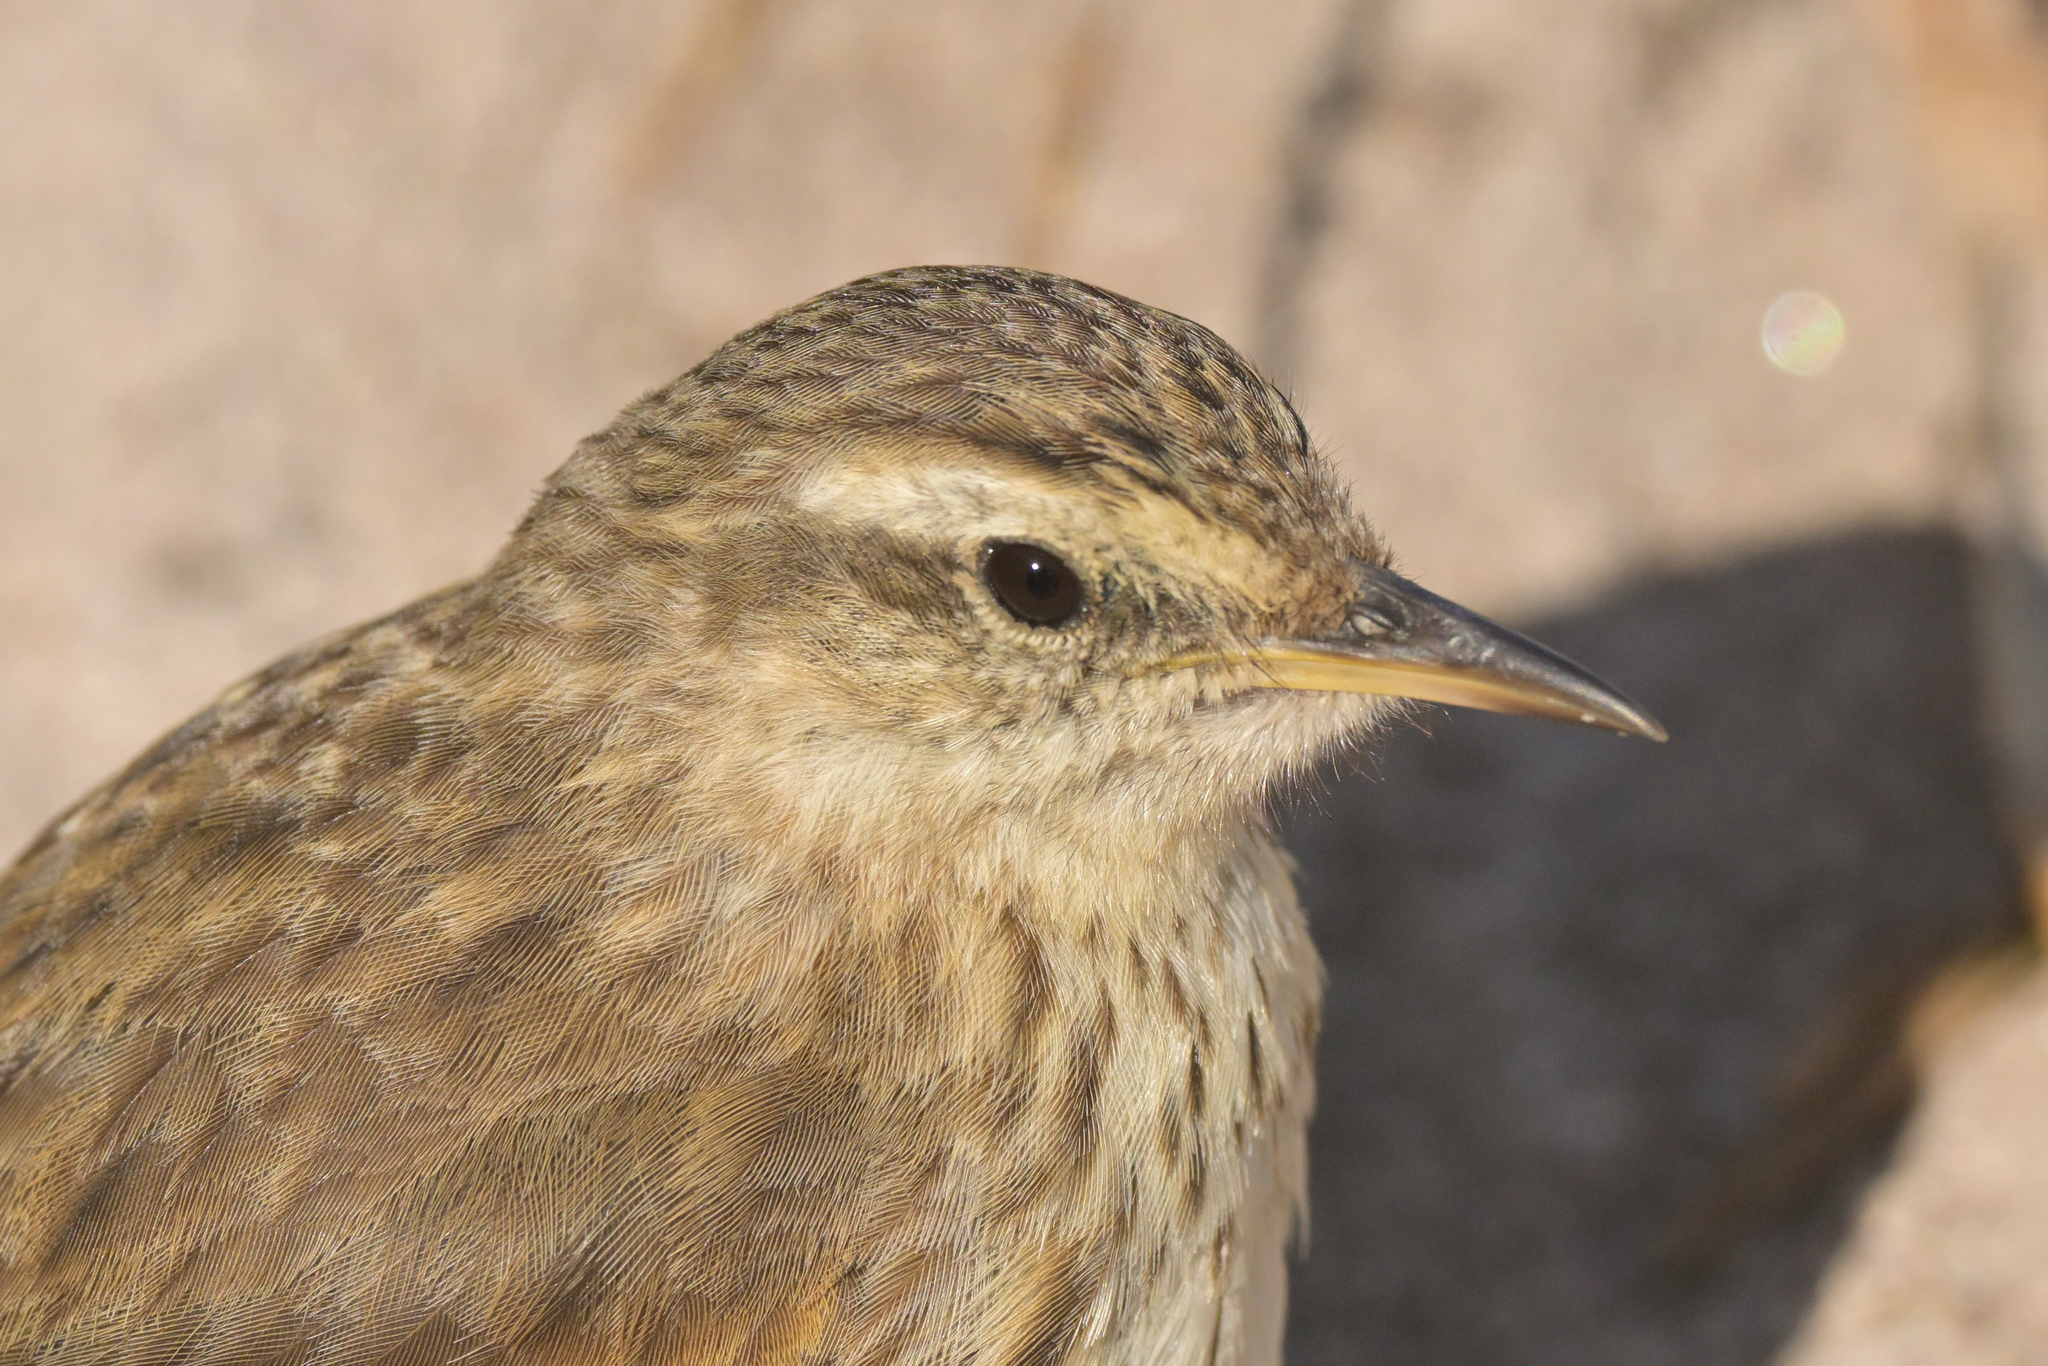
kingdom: Animalia
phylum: Chordata
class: Aves
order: Passeriformes
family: Motacillidae
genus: Anthus
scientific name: Anthus novaeseelandiae
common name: New zealand pipit
